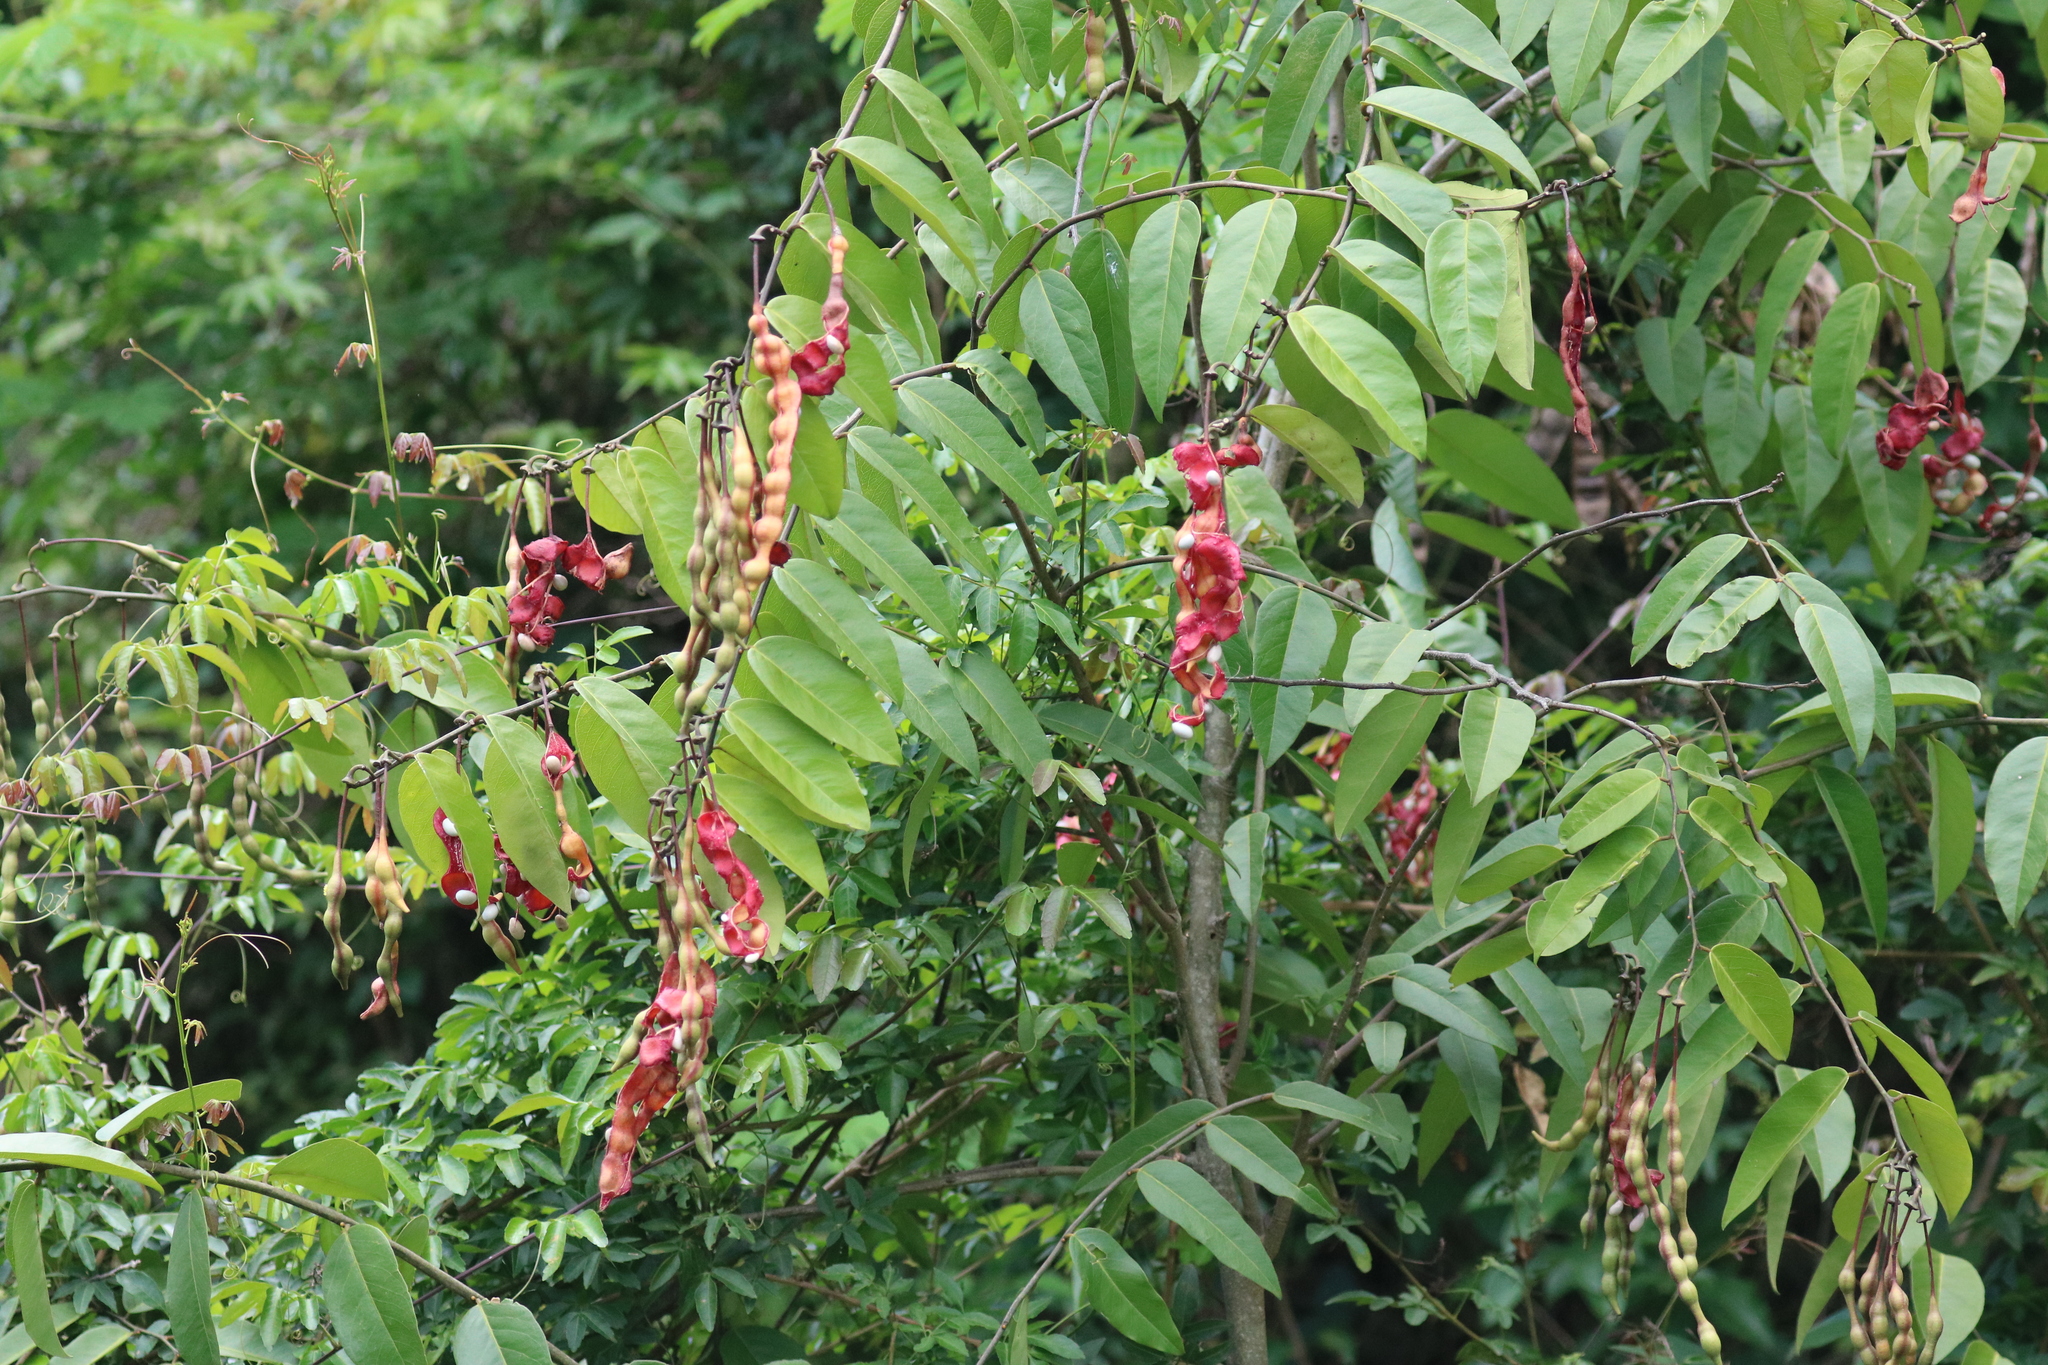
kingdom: Plantae
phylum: Tracheophyta
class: Magnoliopsida
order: Brassicales
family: Capparaceae
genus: Cynophalla
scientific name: Cynophalla flexuosa
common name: Capertree
